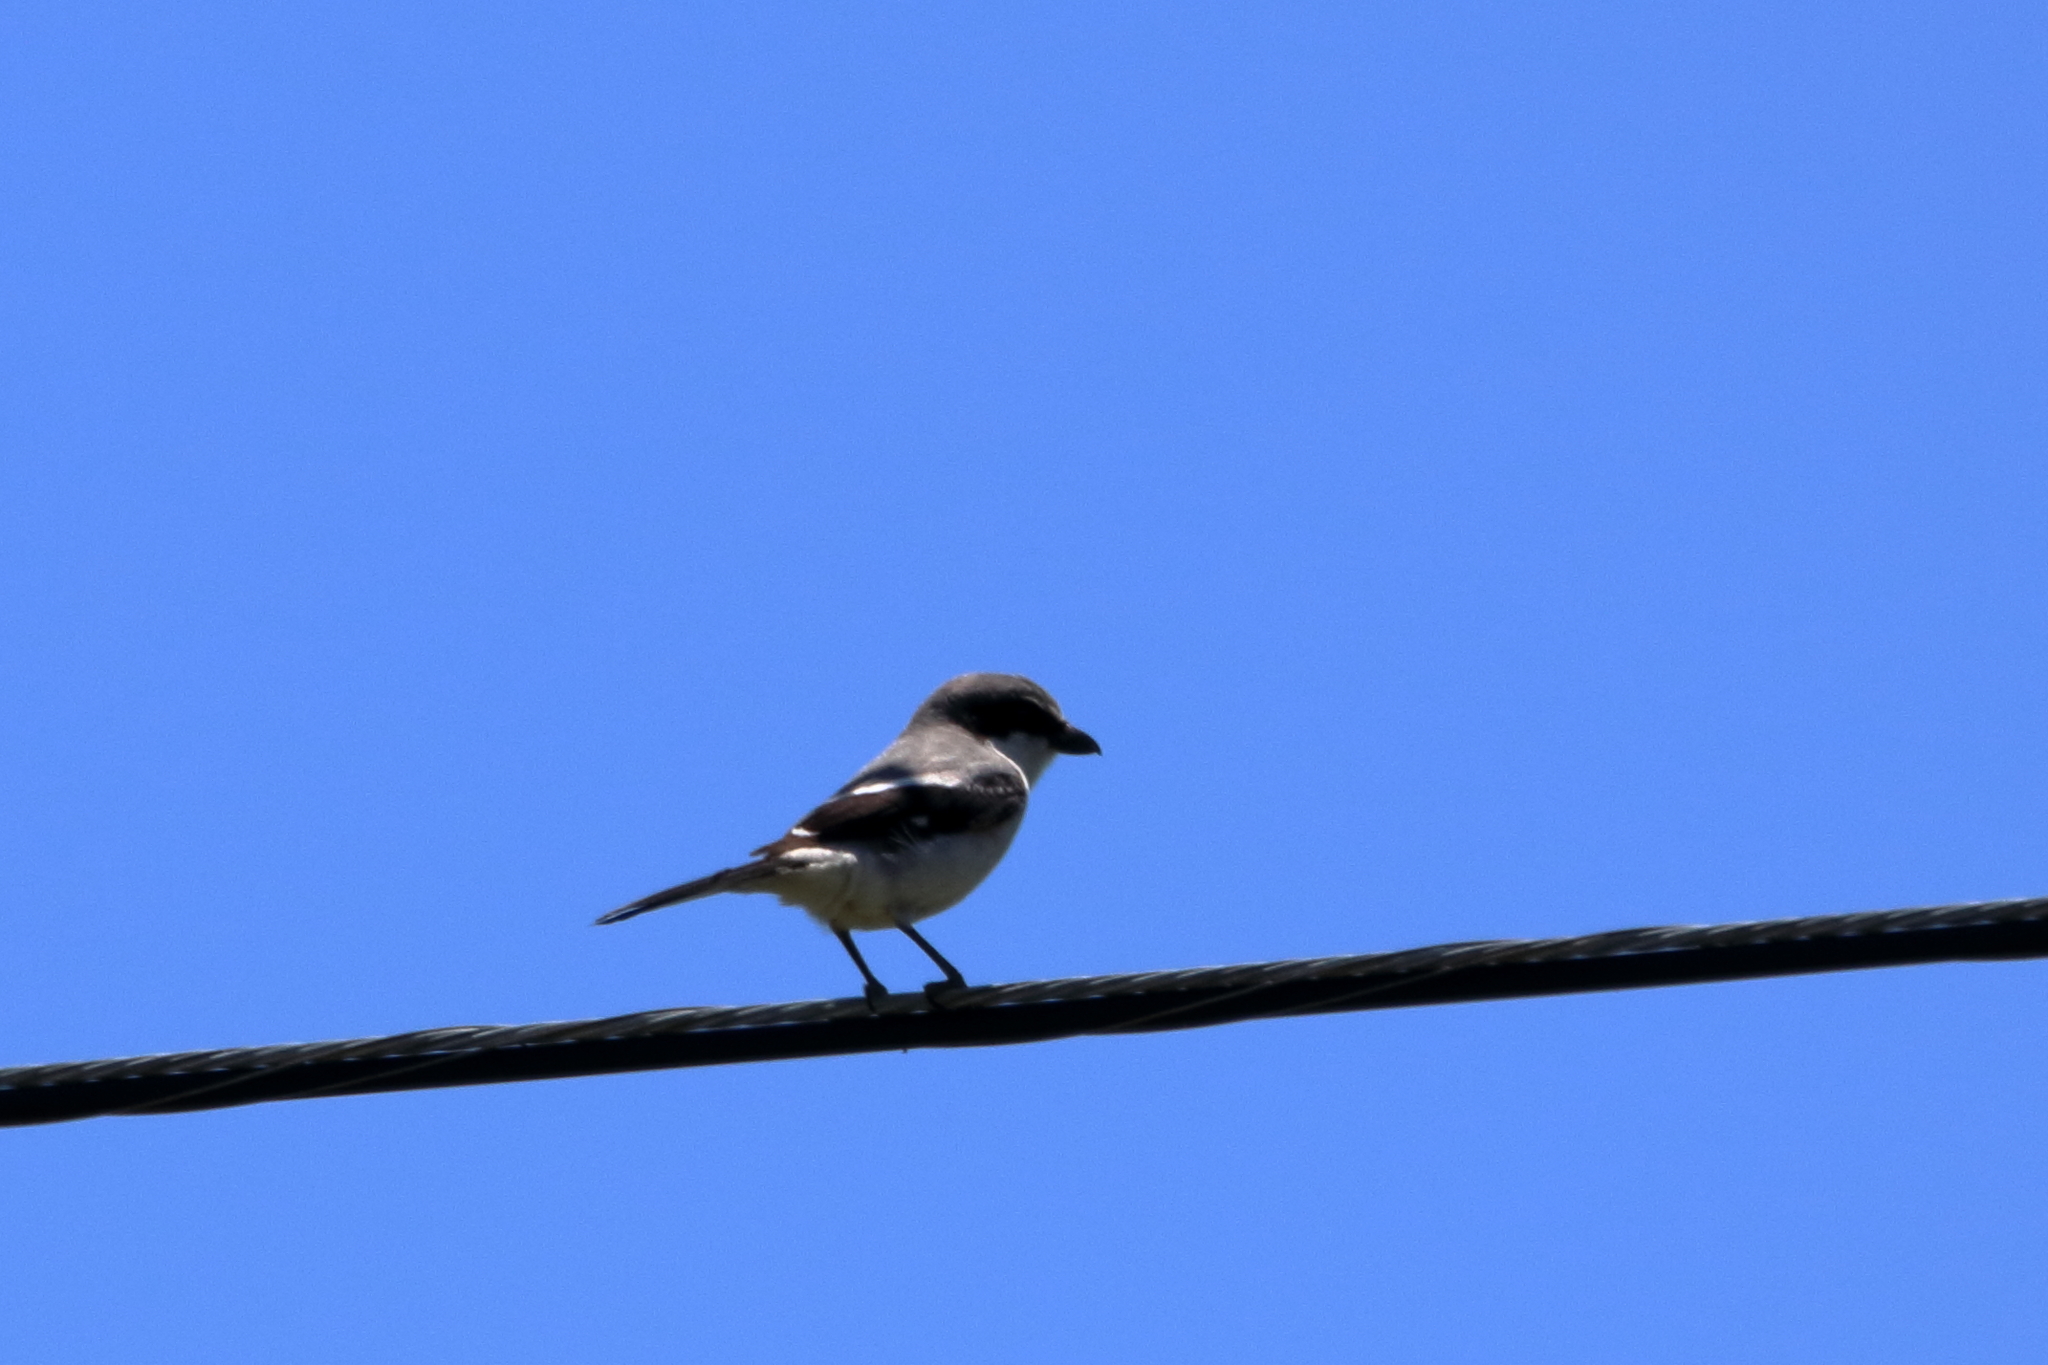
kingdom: Animalia
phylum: Chordata
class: Aves
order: Passeriformes
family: Laniidae
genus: Lanius
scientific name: Lanius ludovicianus
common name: Loggerhead shrike
